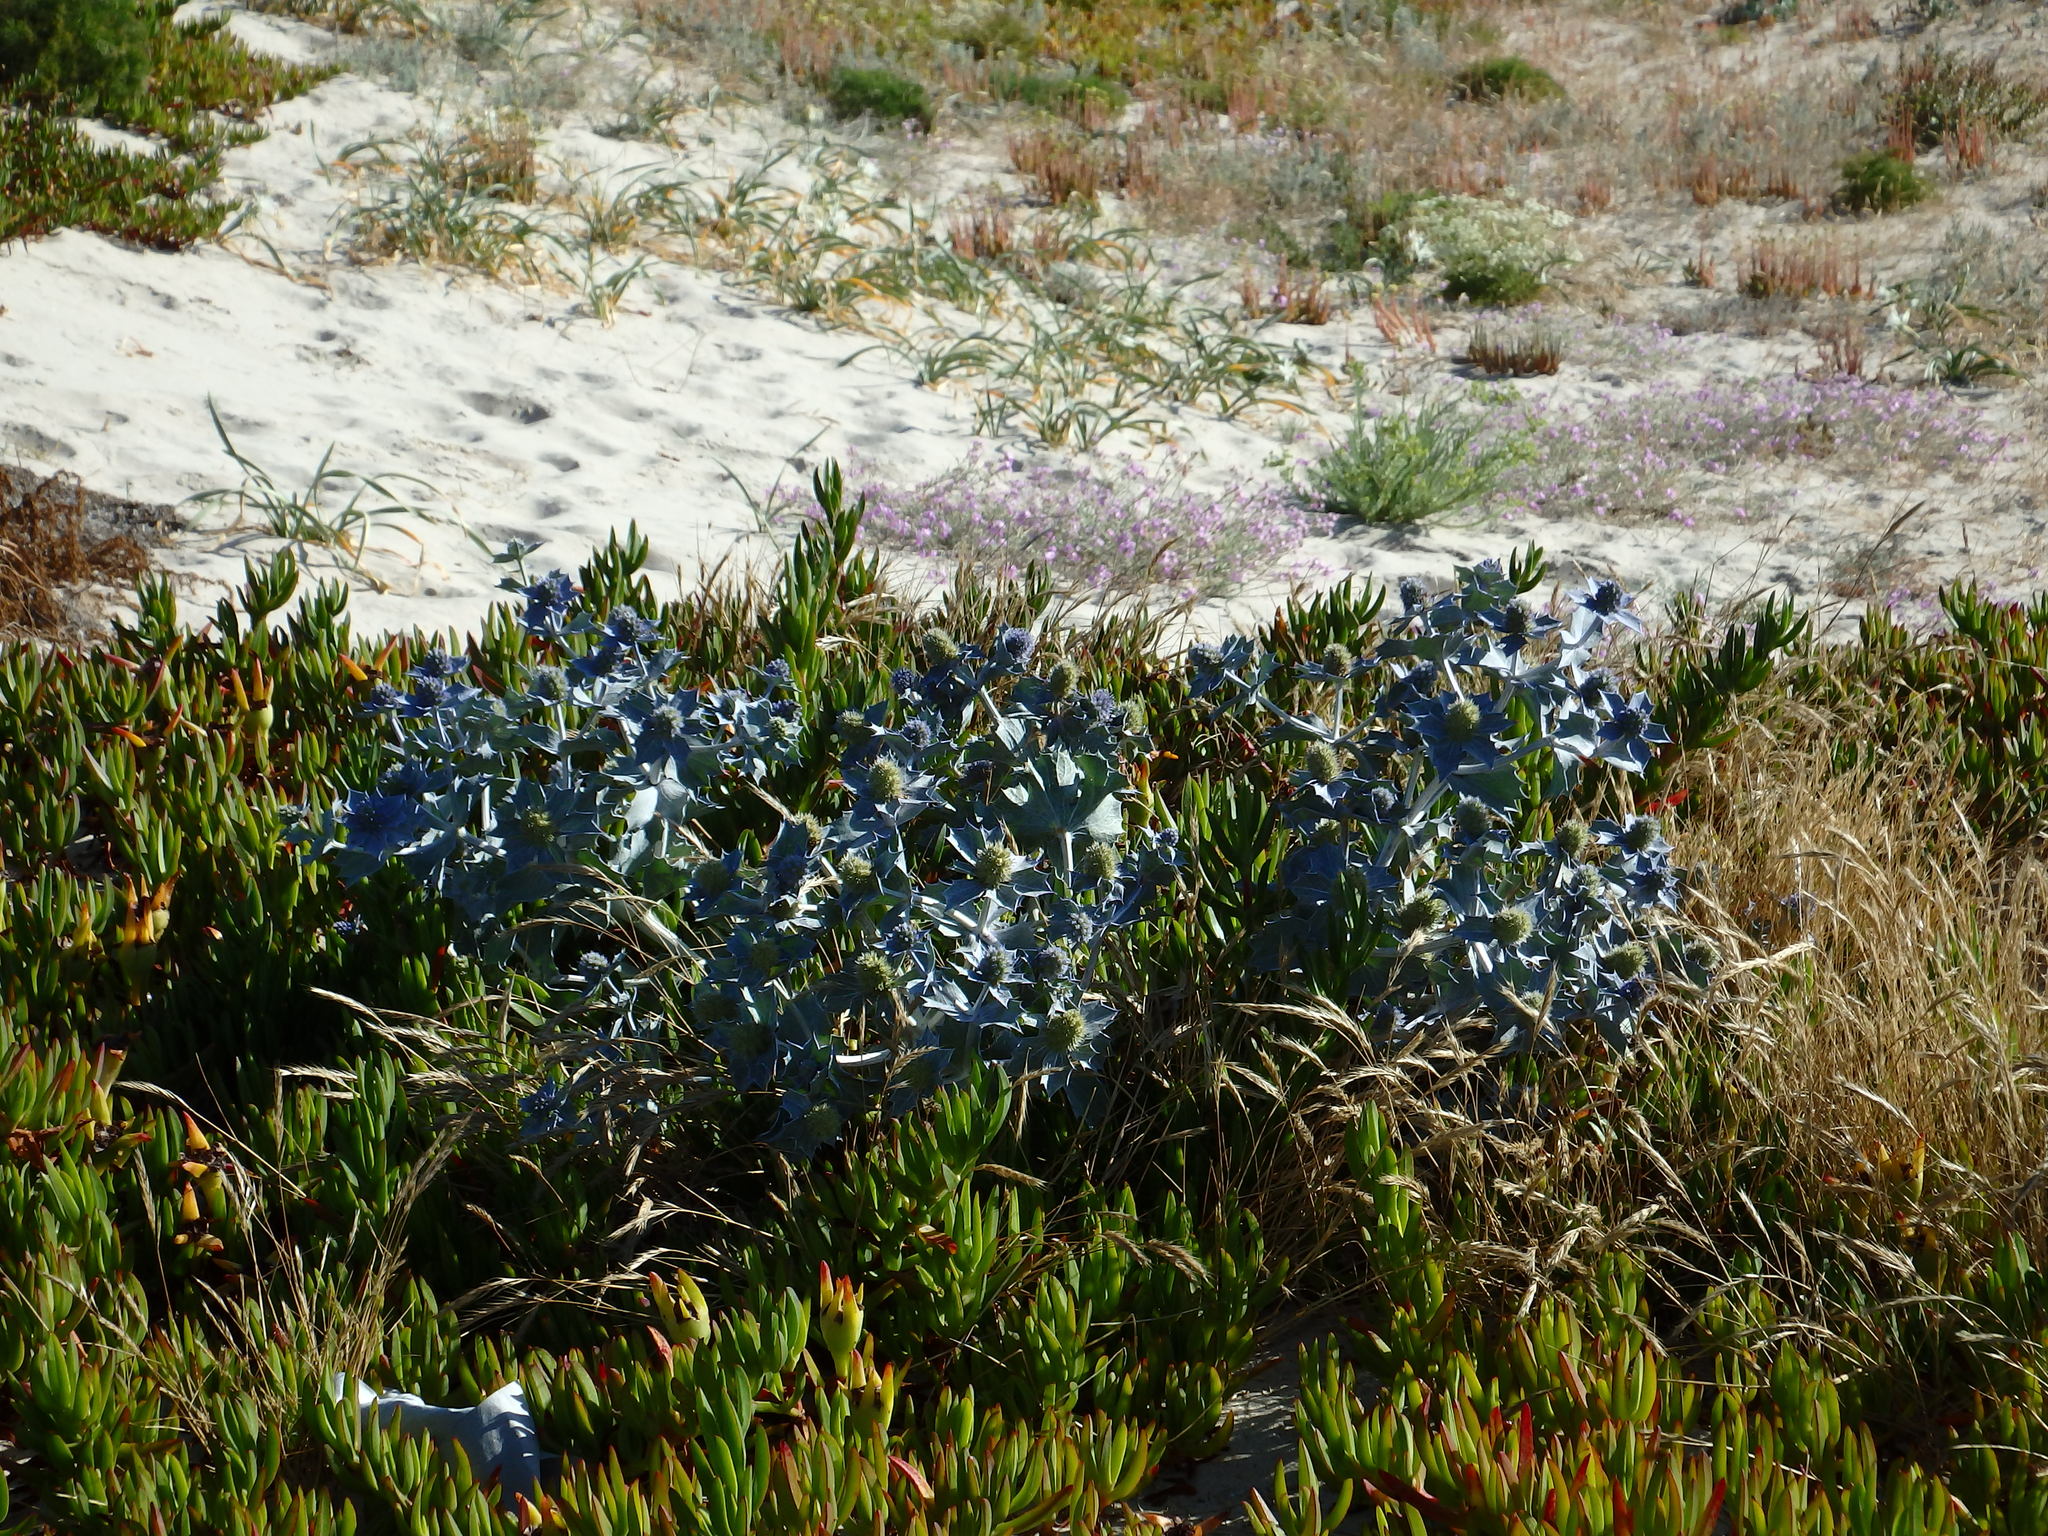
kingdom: Plantae
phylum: Tracheophyta
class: Magnoliopsida
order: Apiales
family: Apiaceae
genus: Eryngium
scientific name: Eryngium maritimum
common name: Sea-holly
